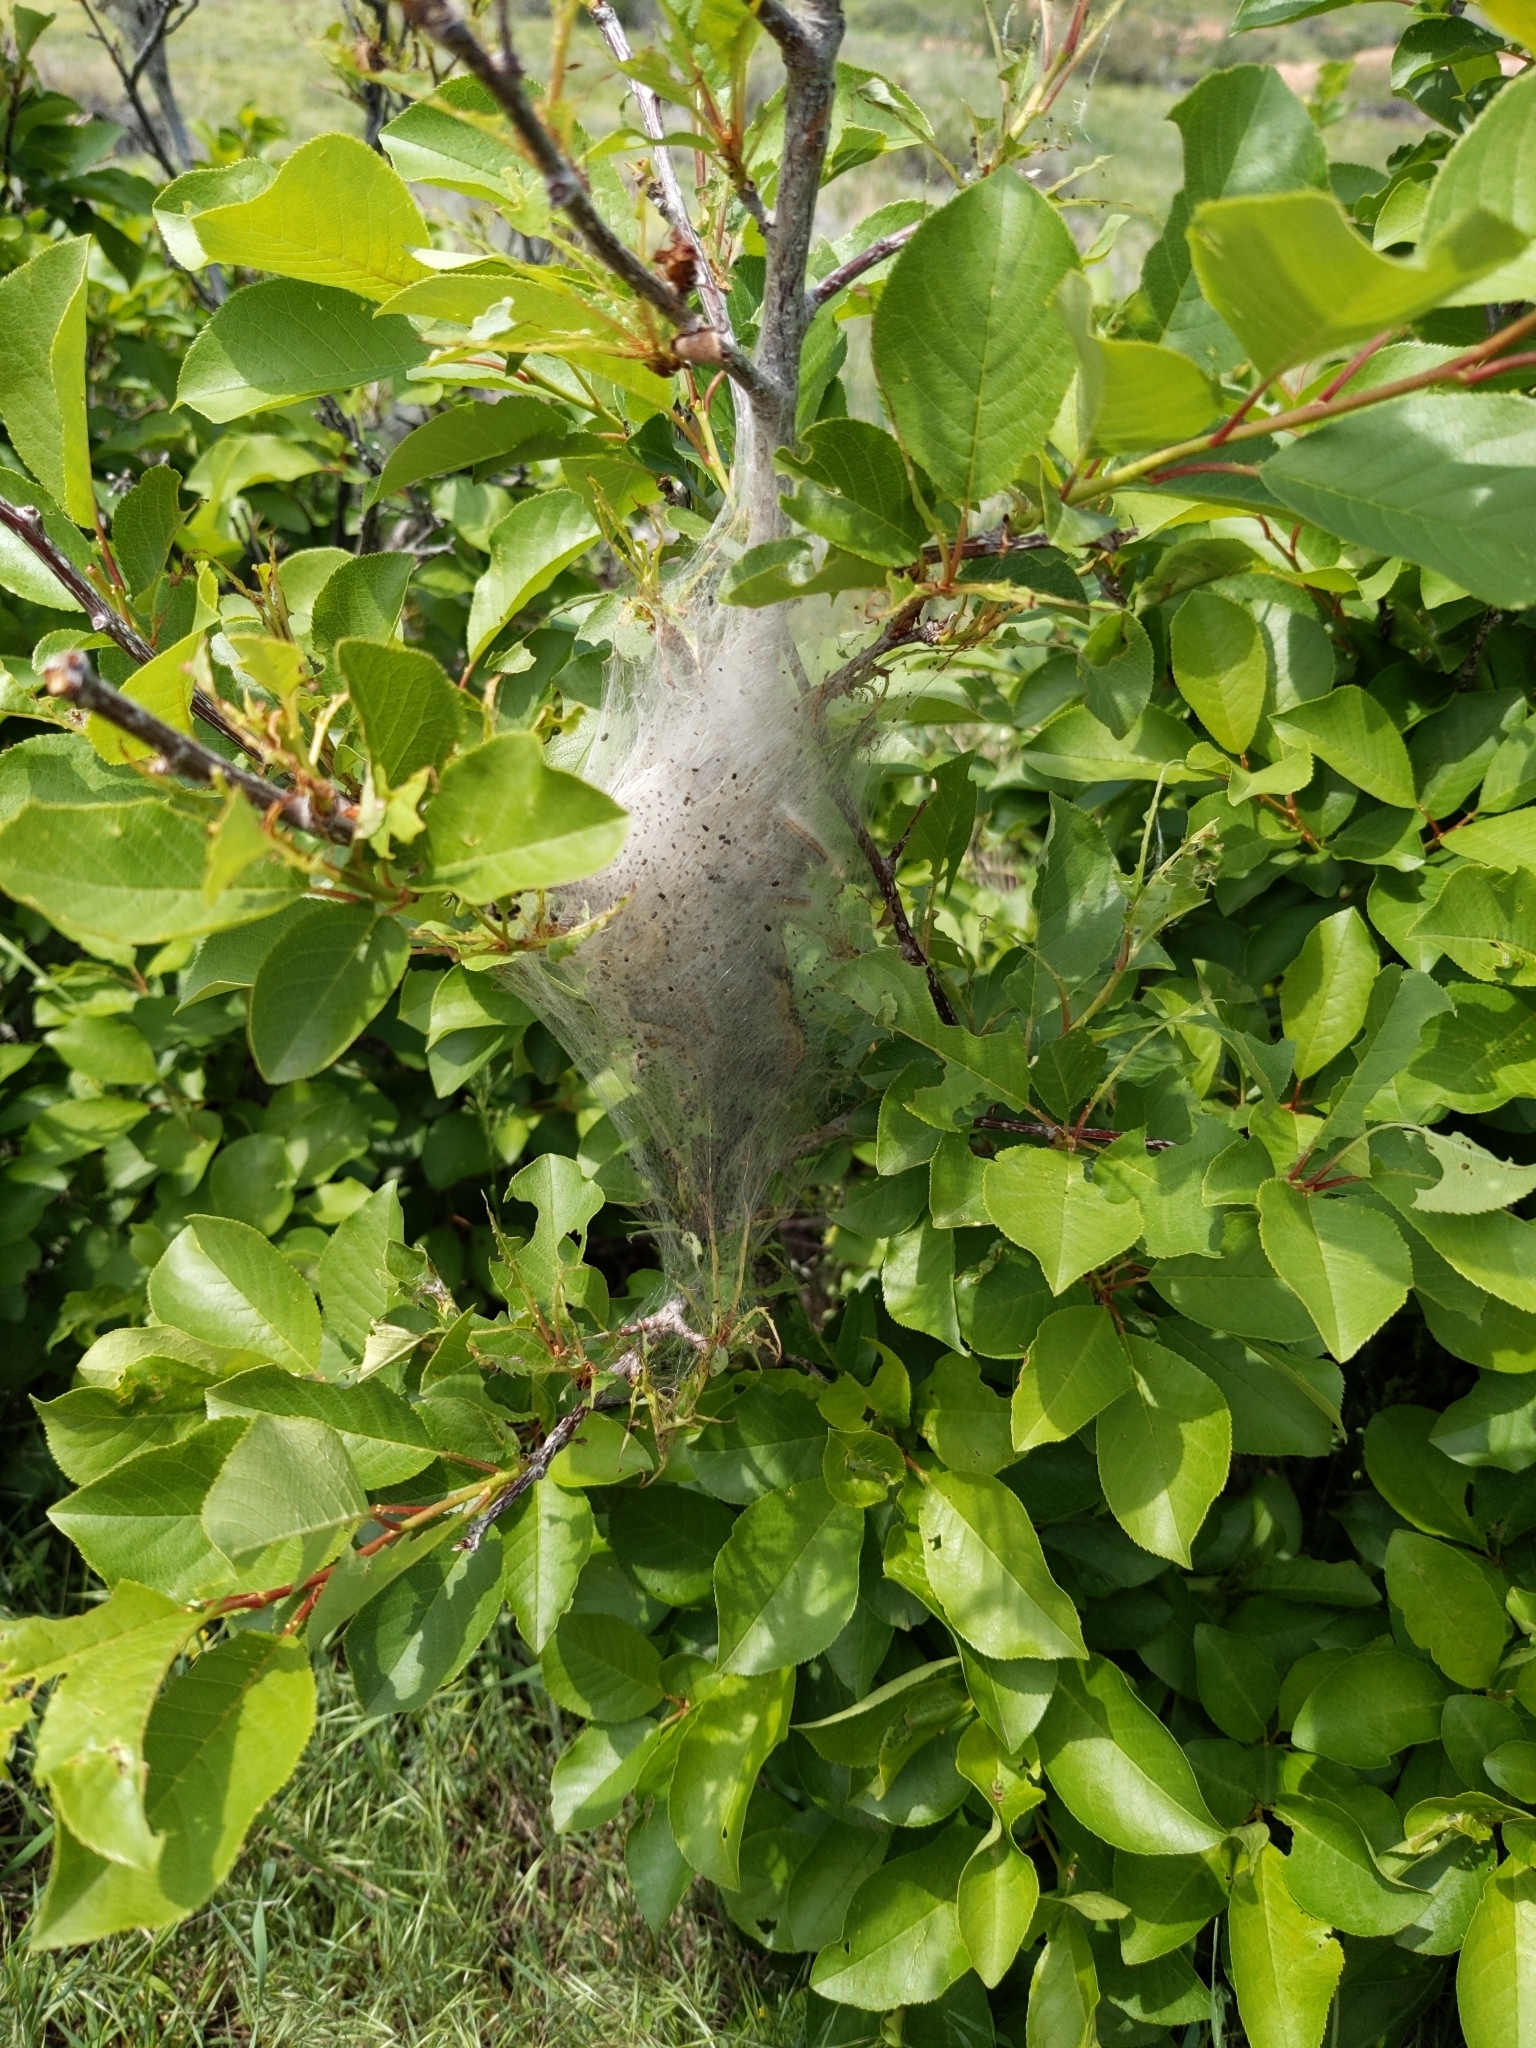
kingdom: Animalia
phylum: Arthropoda
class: Insecta
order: Lepidoptera
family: Lasiocampidae
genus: Malacosoma
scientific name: Malacosoma californica
